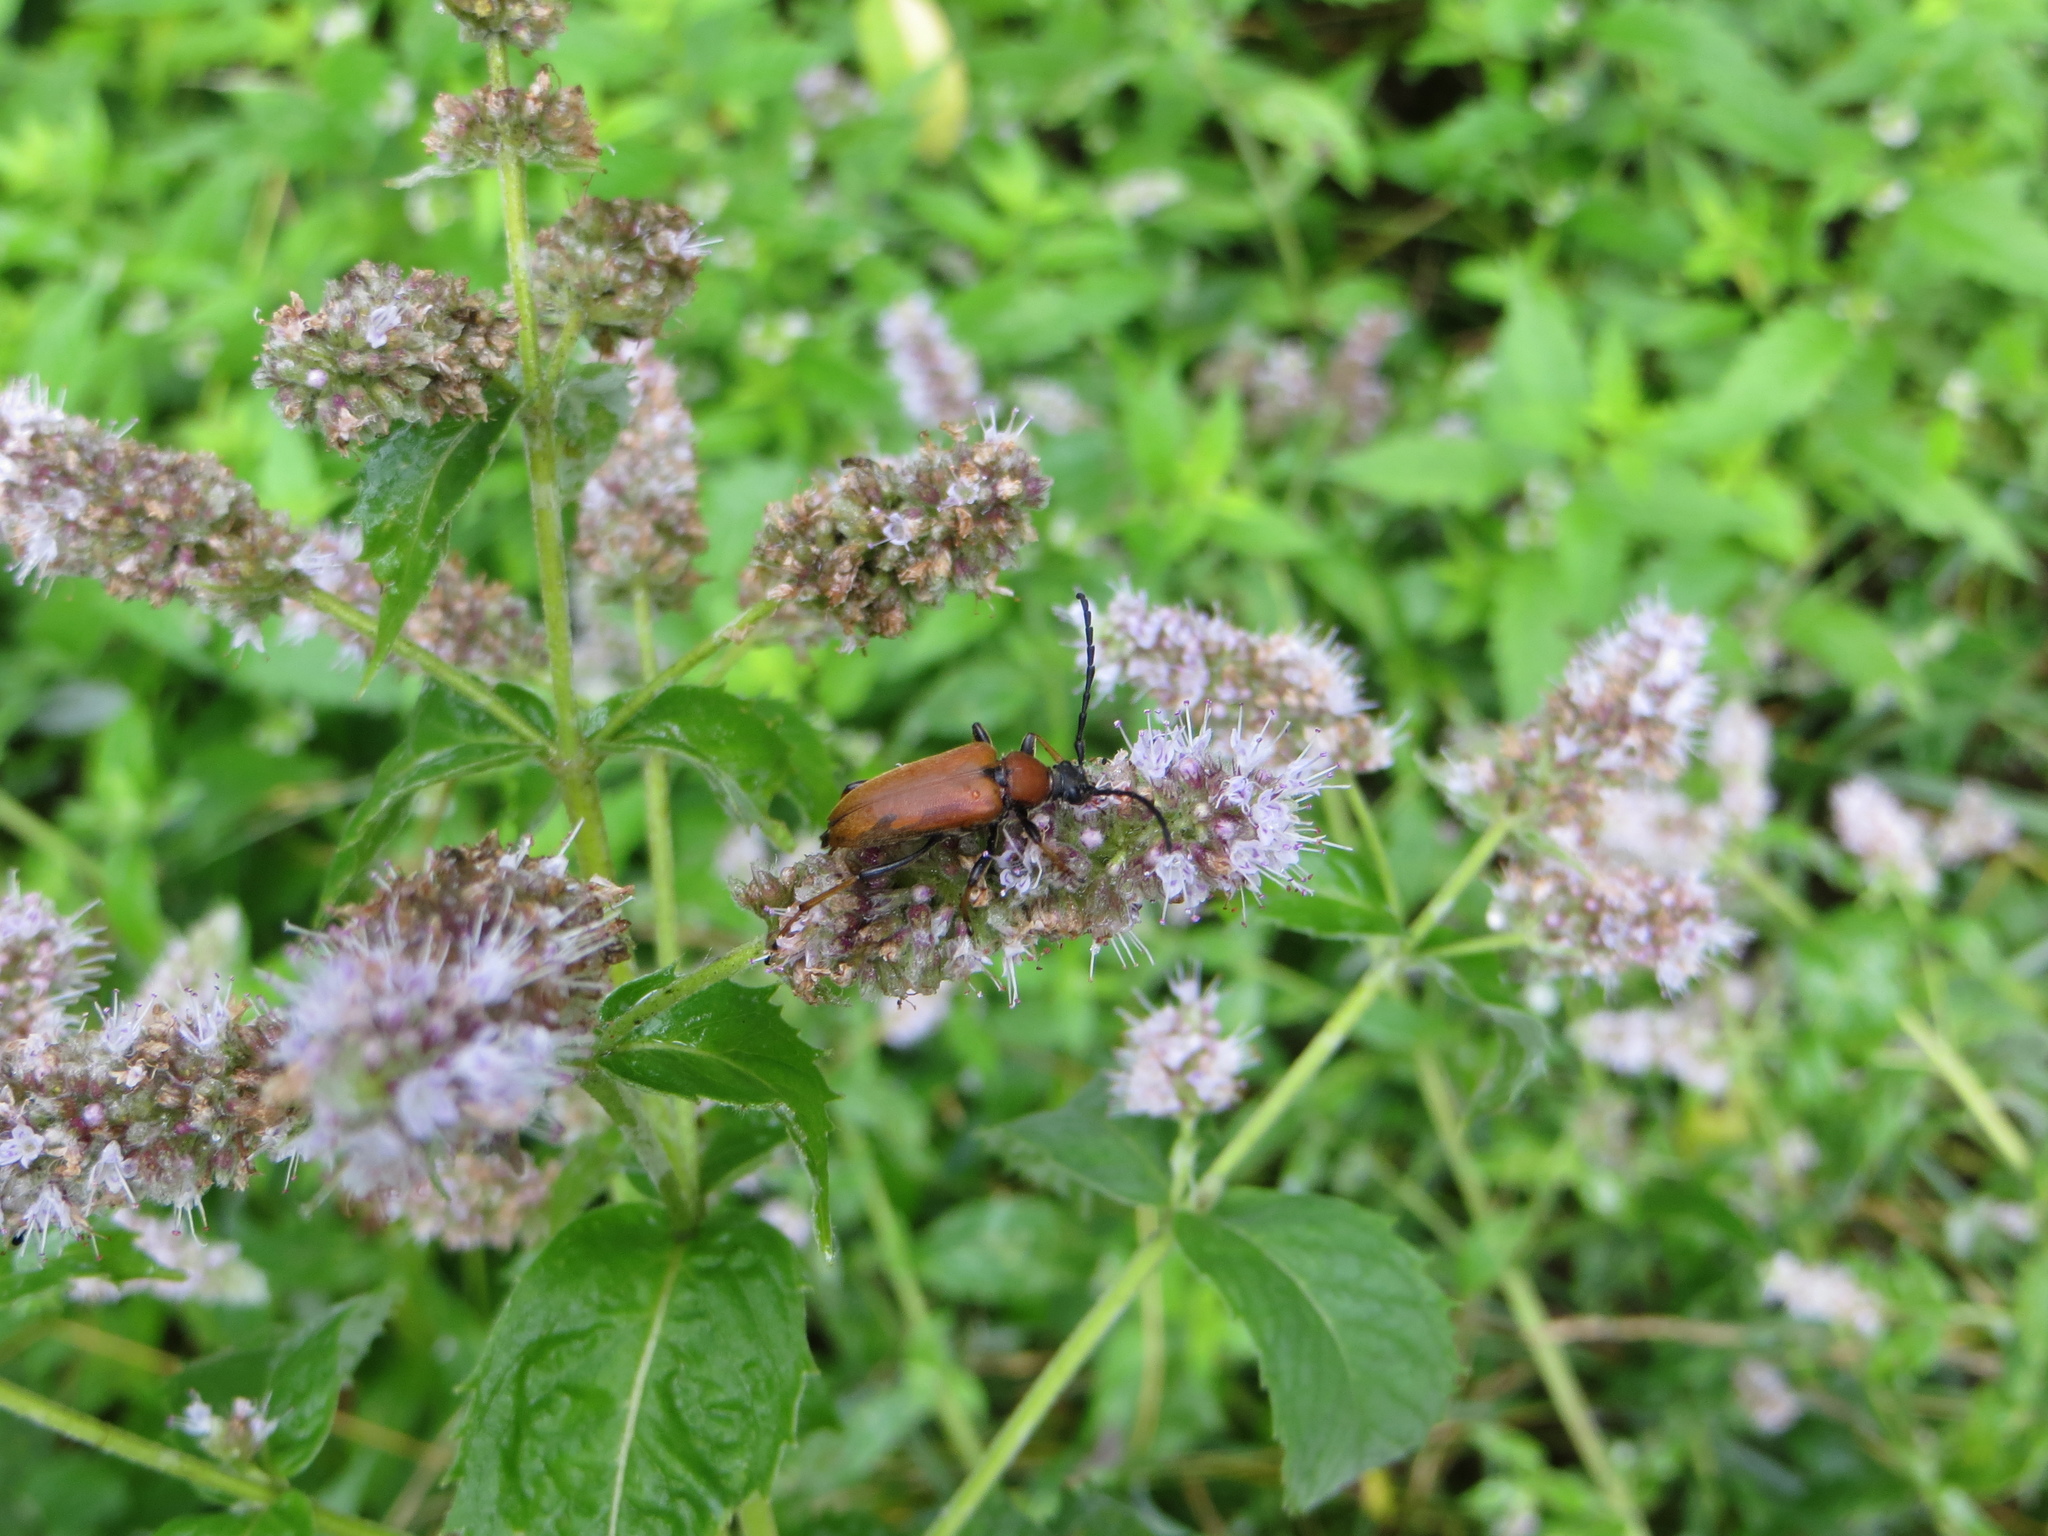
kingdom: Animalia
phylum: Arthropoda
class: Insecta
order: Coleoptera
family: Cerambycidae
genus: Stictoleptura
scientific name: Stictoleptura rubra
